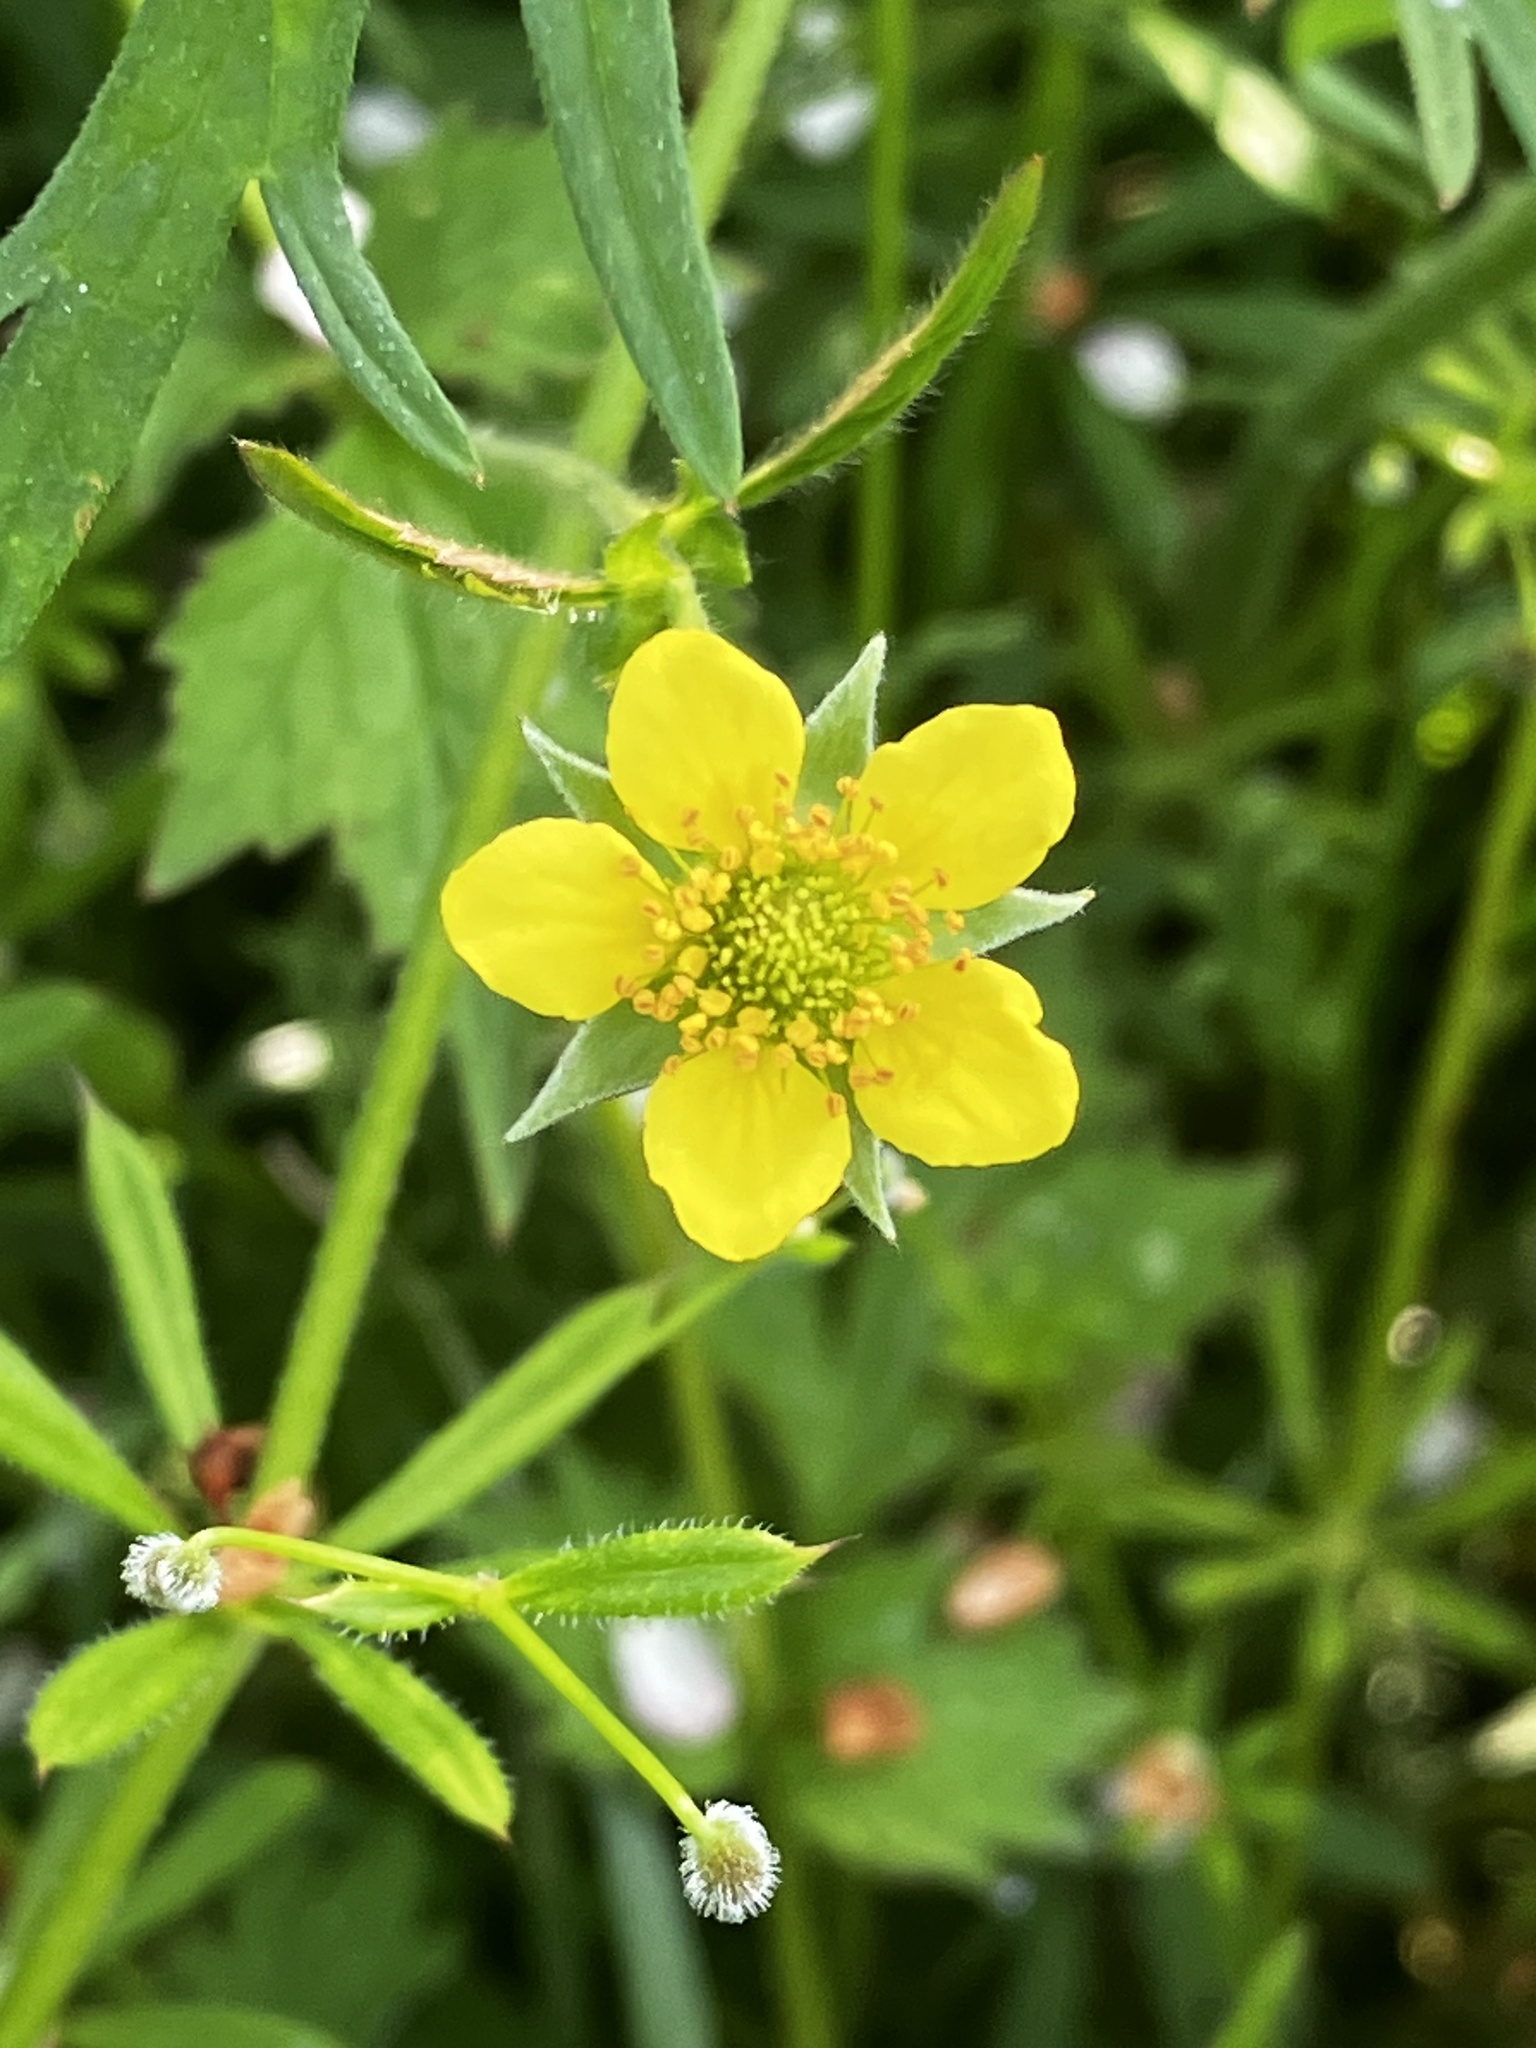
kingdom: Plantae
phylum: Tracheophyta
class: Magnoliopsida
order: Rosales
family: Rosaceae
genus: Geum
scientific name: Geum urbanum
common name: Wood avens
